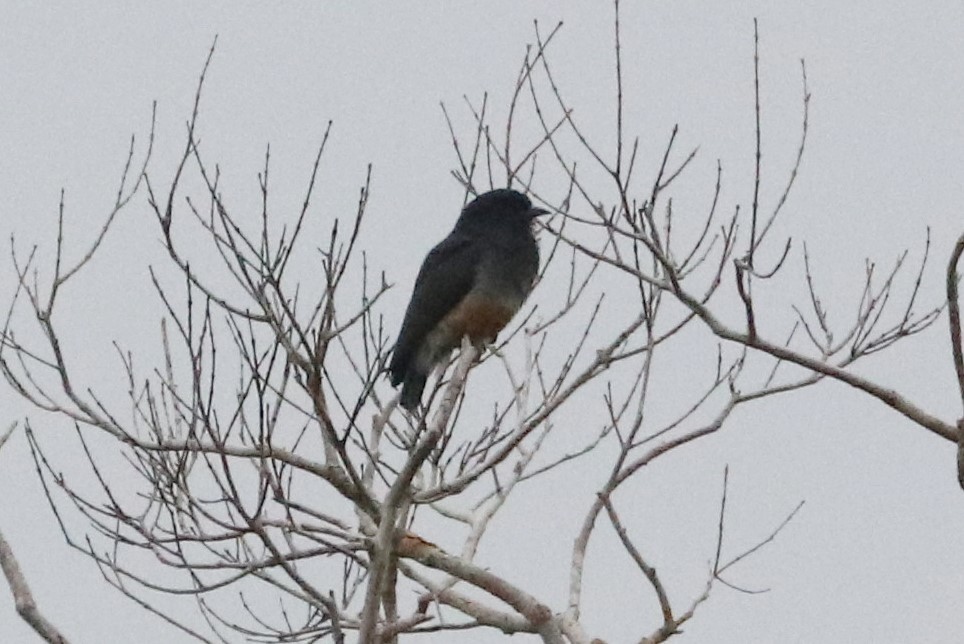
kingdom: Animalia
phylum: Chordata
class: Aves
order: Piciformes
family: Bucconidae
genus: Chelidoptera
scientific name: Chelidoptera tenebrosa
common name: Swallow-winged puffbird
